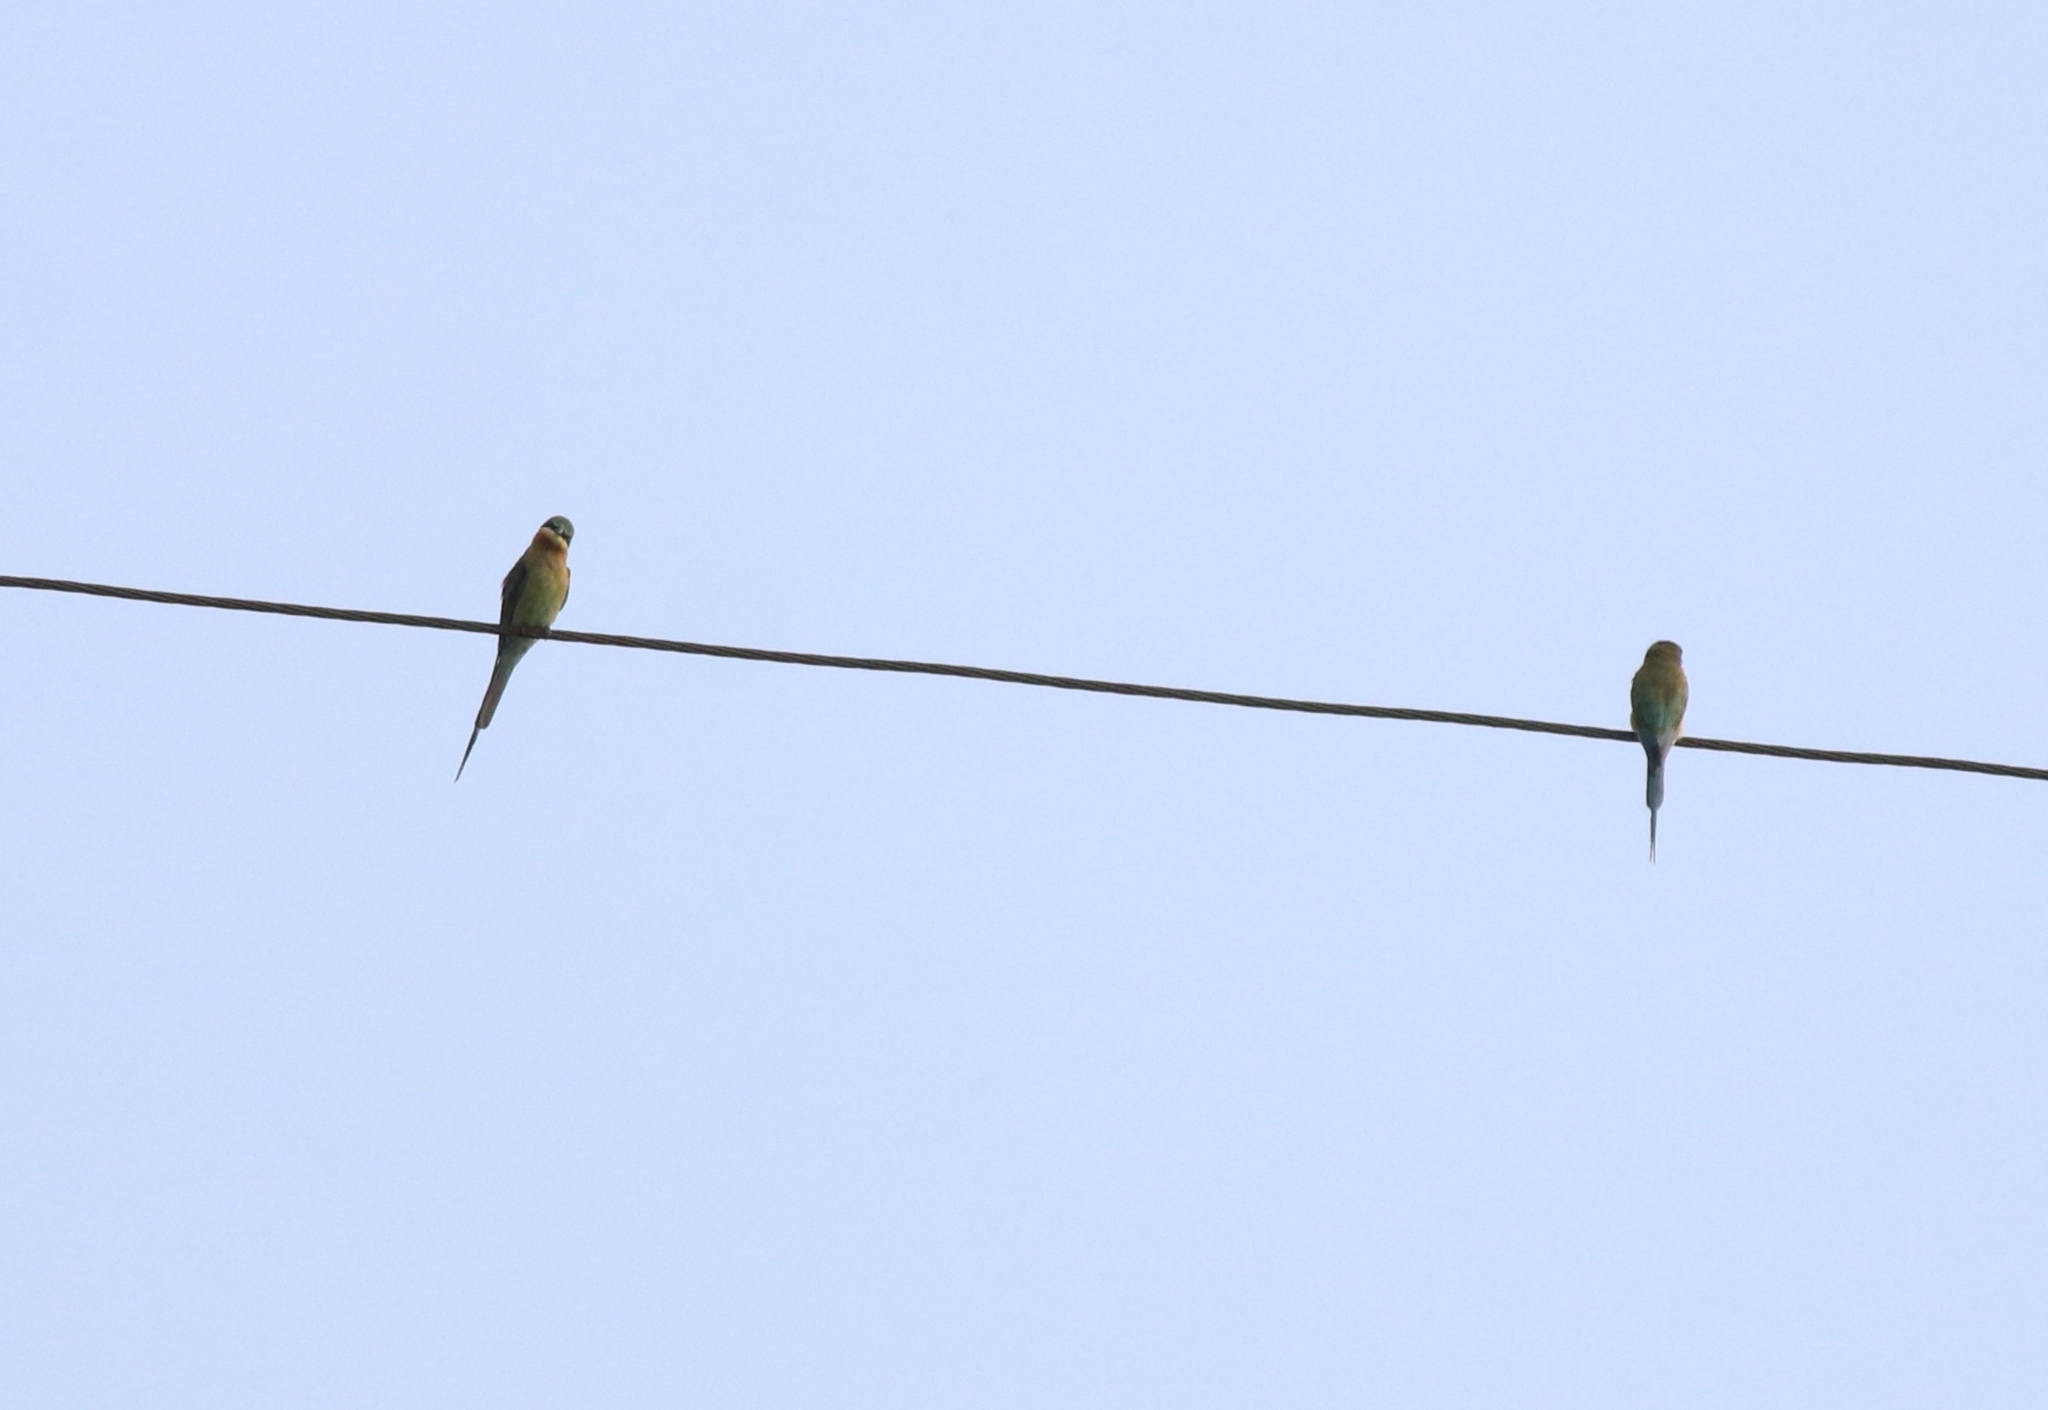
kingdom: Animalia
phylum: Chordata
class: Aves
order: Coraciiformes
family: Meropidae
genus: Merops
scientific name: Merops philippinus
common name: Blue-tailed bee-eater
